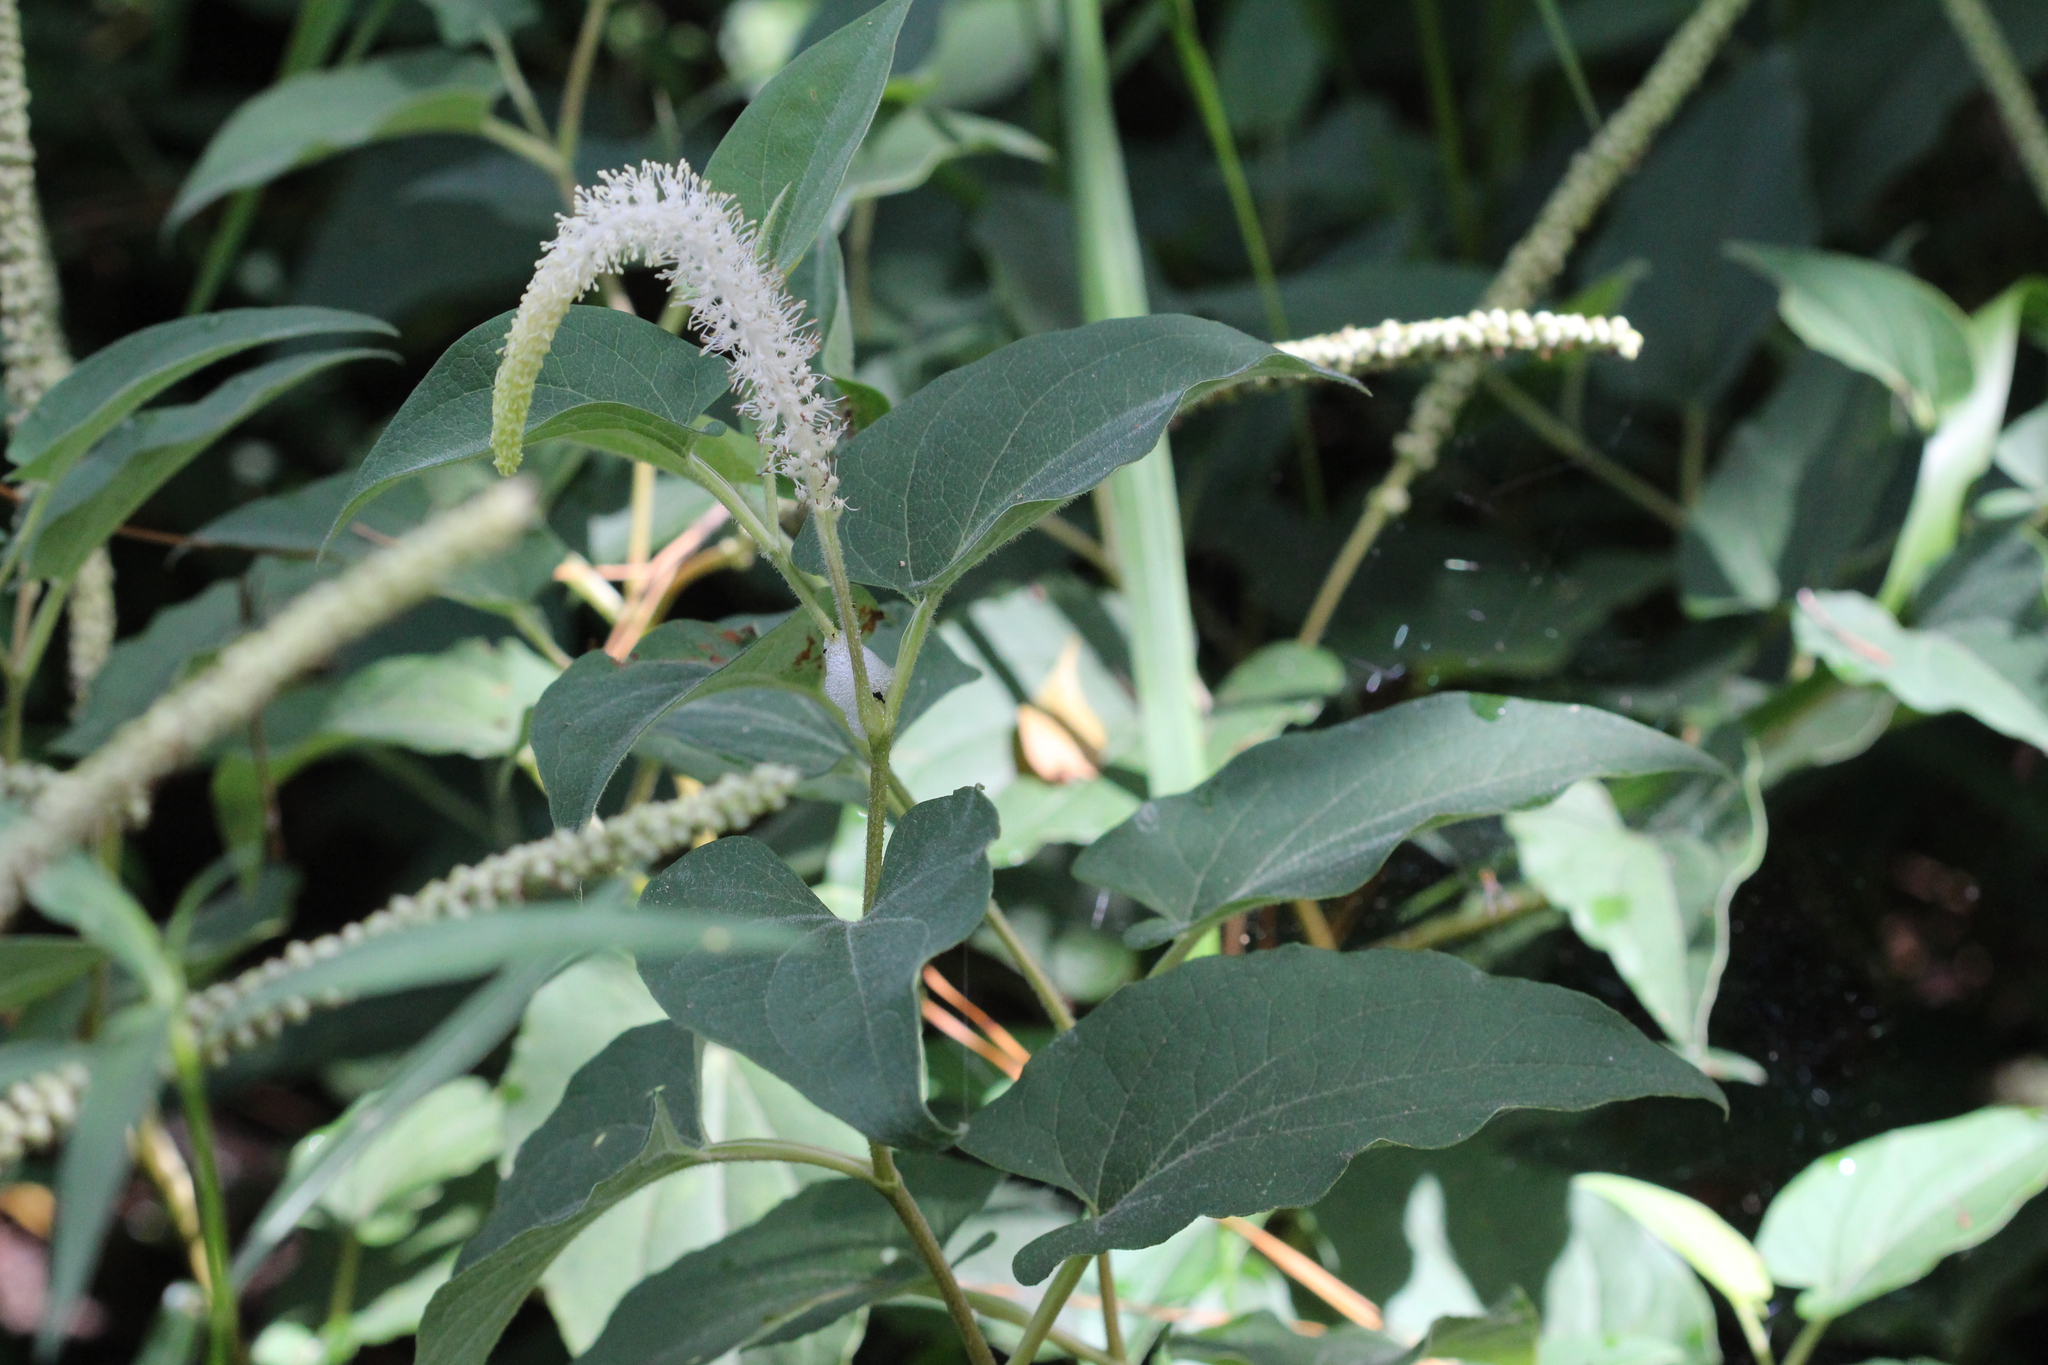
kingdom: Plantae
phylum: Tracheophyta
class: Magnoliopsida
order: Piperales
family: Saururaceae
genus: Saururus
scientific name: Saururus cernuus
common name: Lizard's-tail
